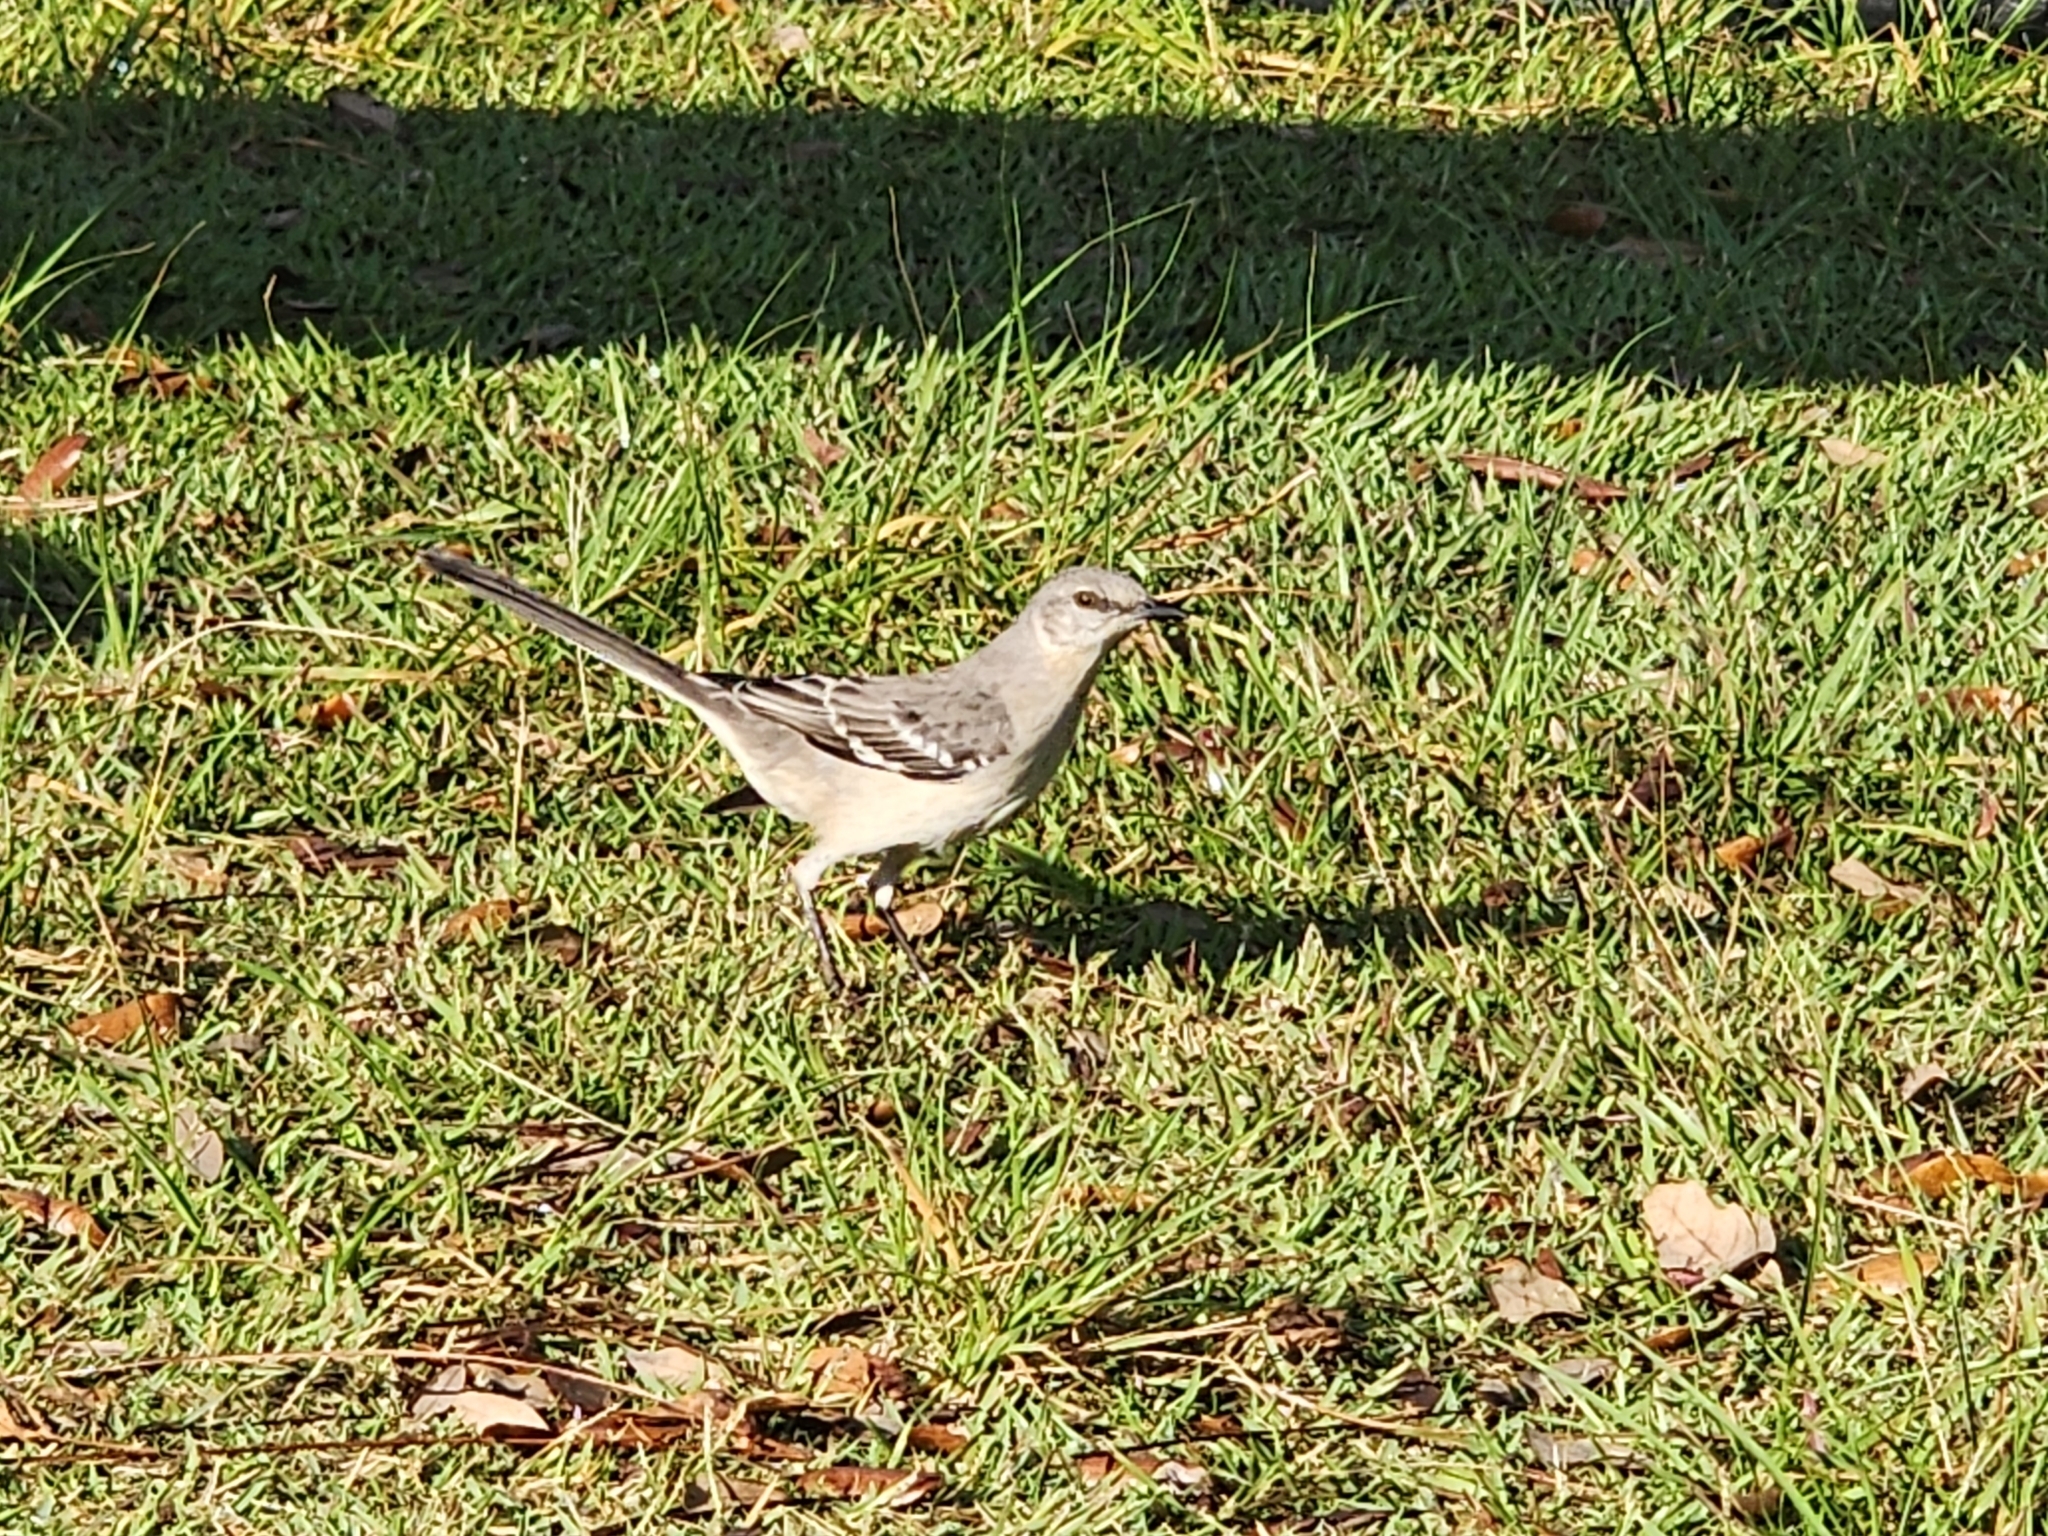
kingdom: Animalia
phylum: Chordata
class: Aves
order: Passeriformes
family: Mimidae
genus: Mimus
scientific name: Mimus polyglottos
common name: Northern mockingbird
